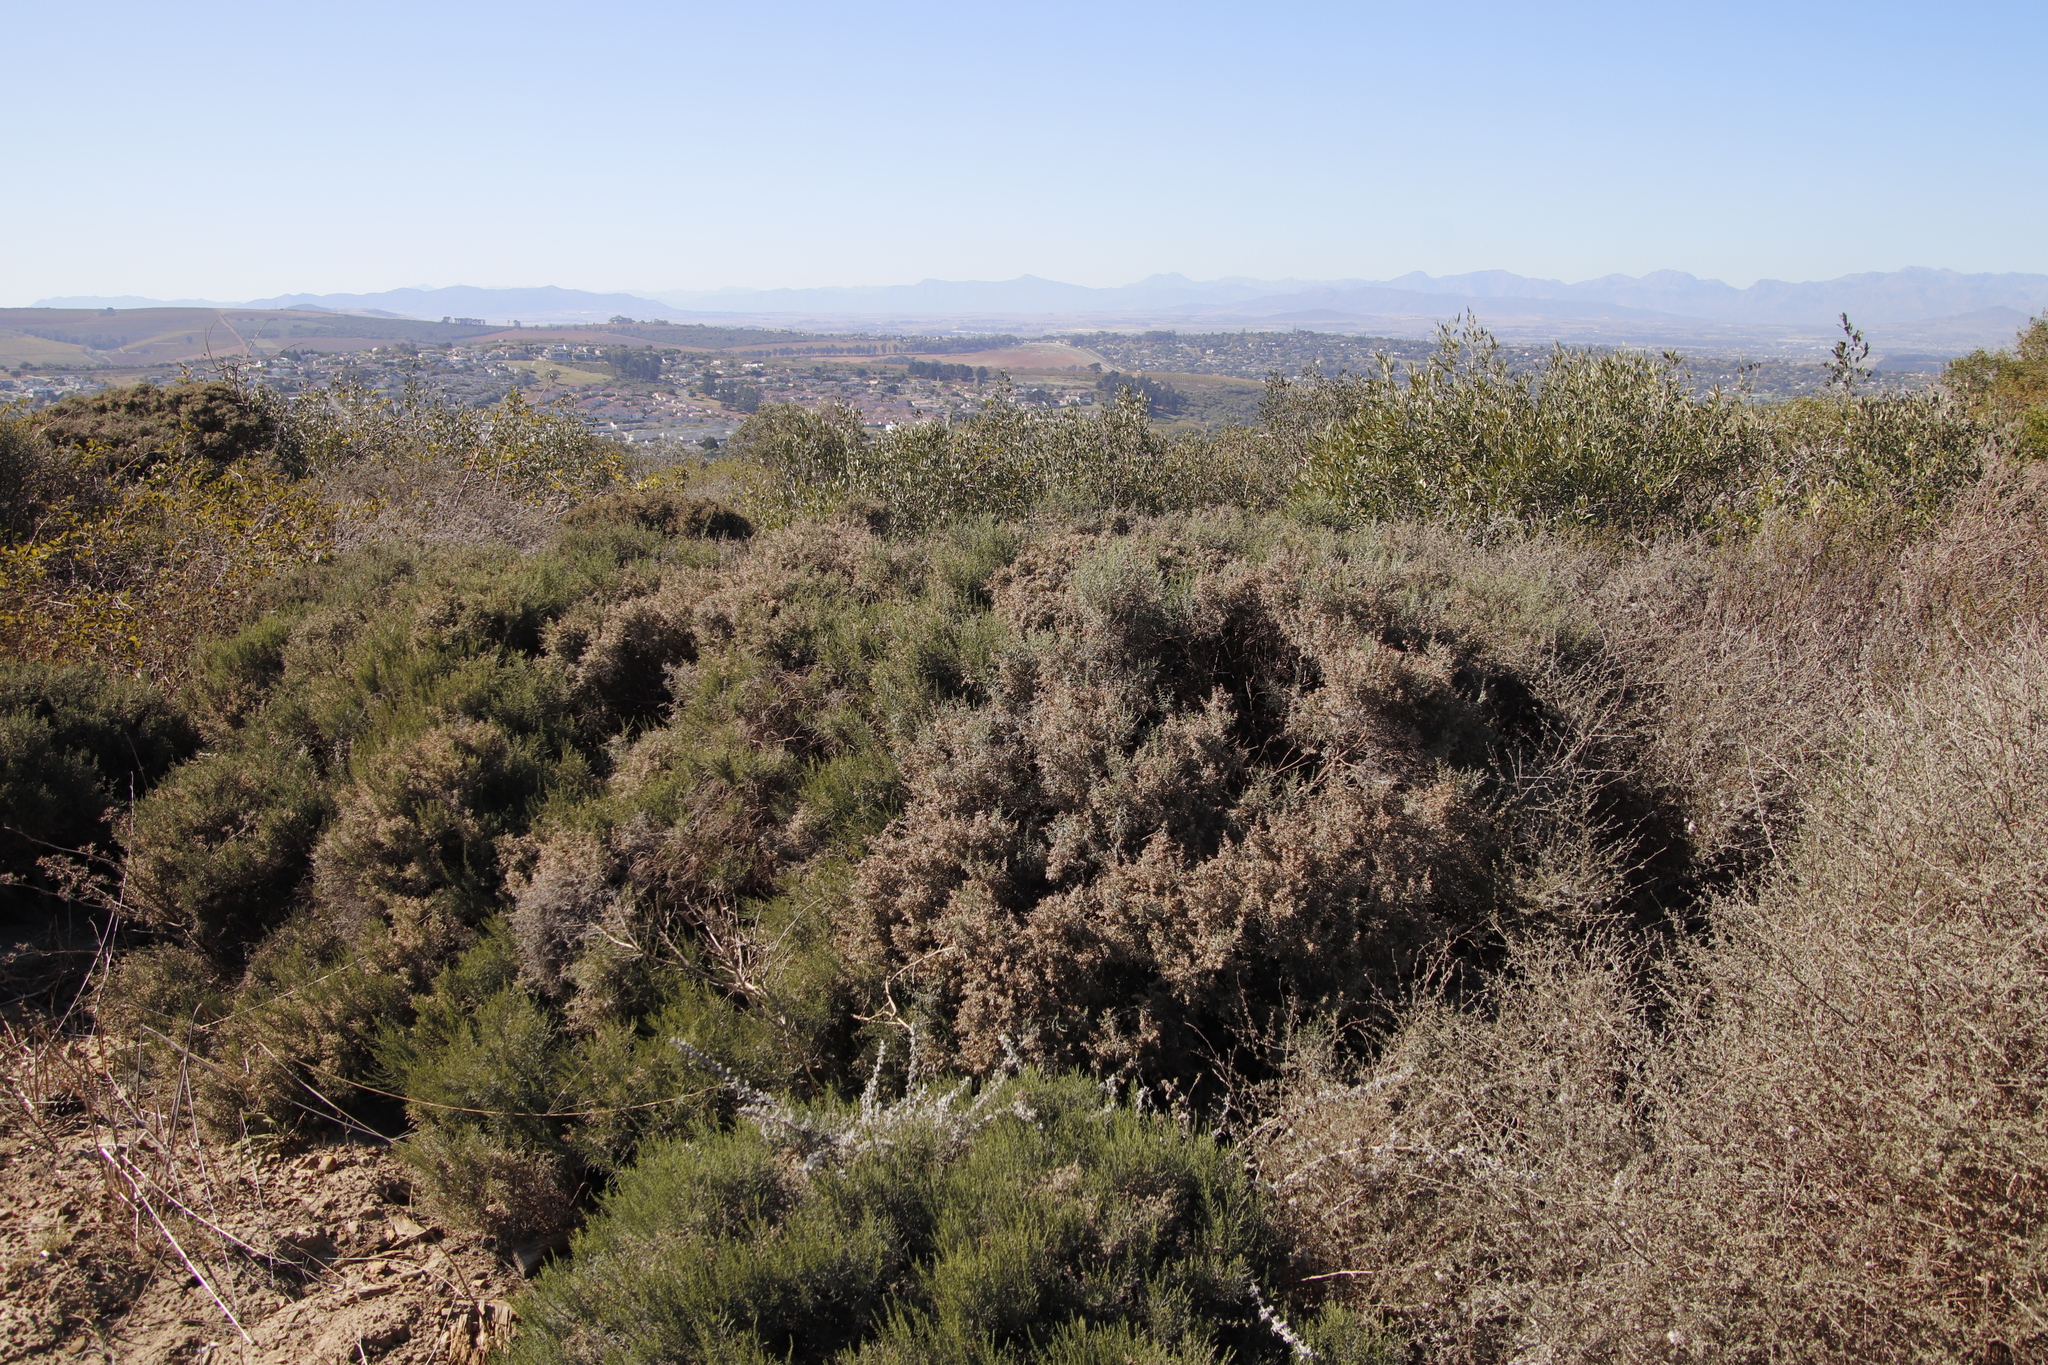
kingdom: Plantae
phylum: Tracheophyta
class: Magnoliopsida
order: Asterales
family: Asteraceae
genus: Dicerothamnus
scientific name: Dicerothamnus rhinocerotis
